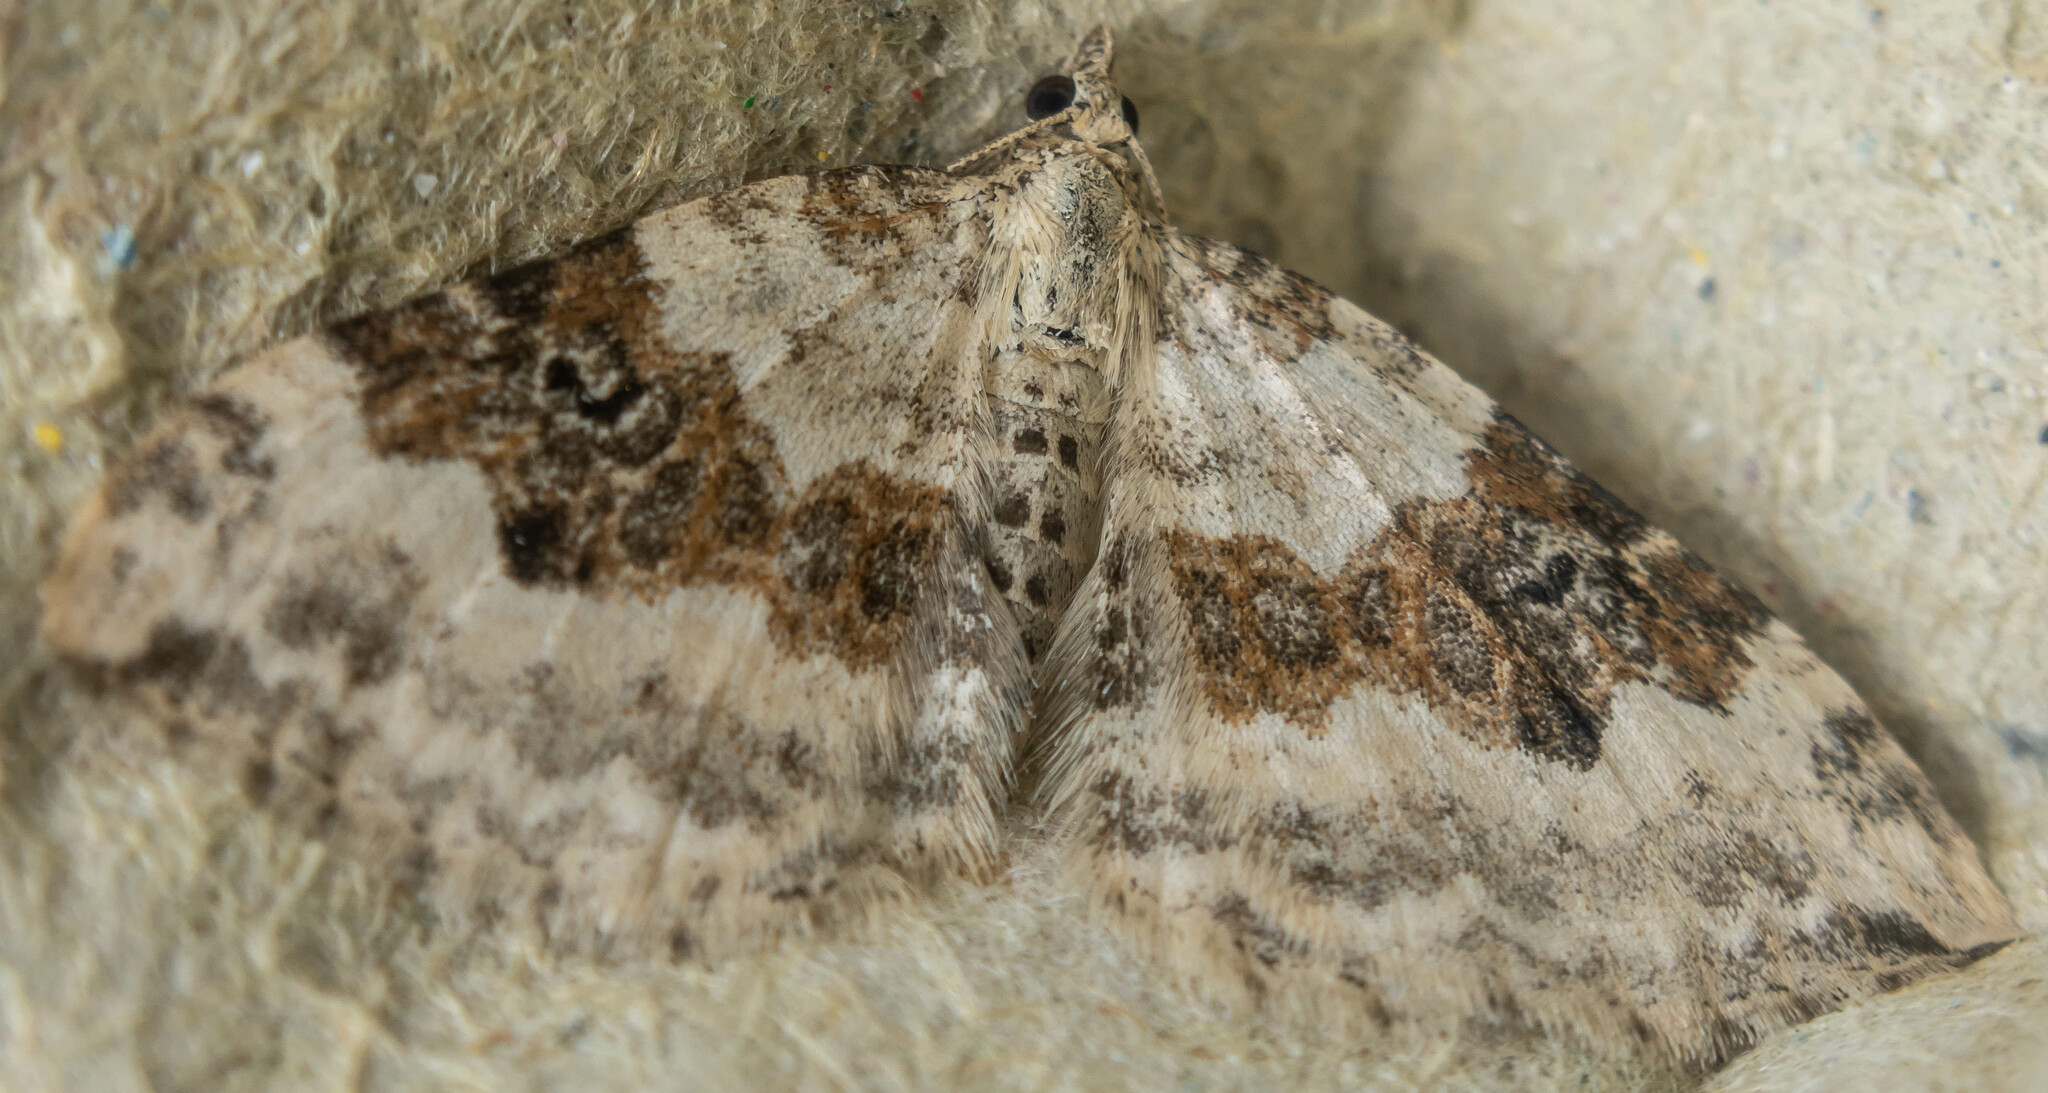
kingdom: Animalia
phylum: Arthropoda
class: Insecta
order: Lepidoptera
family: Geometridae
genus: Xanthorhoe
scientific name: Xanthorhoe montanata
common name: Silver-ground carpet
